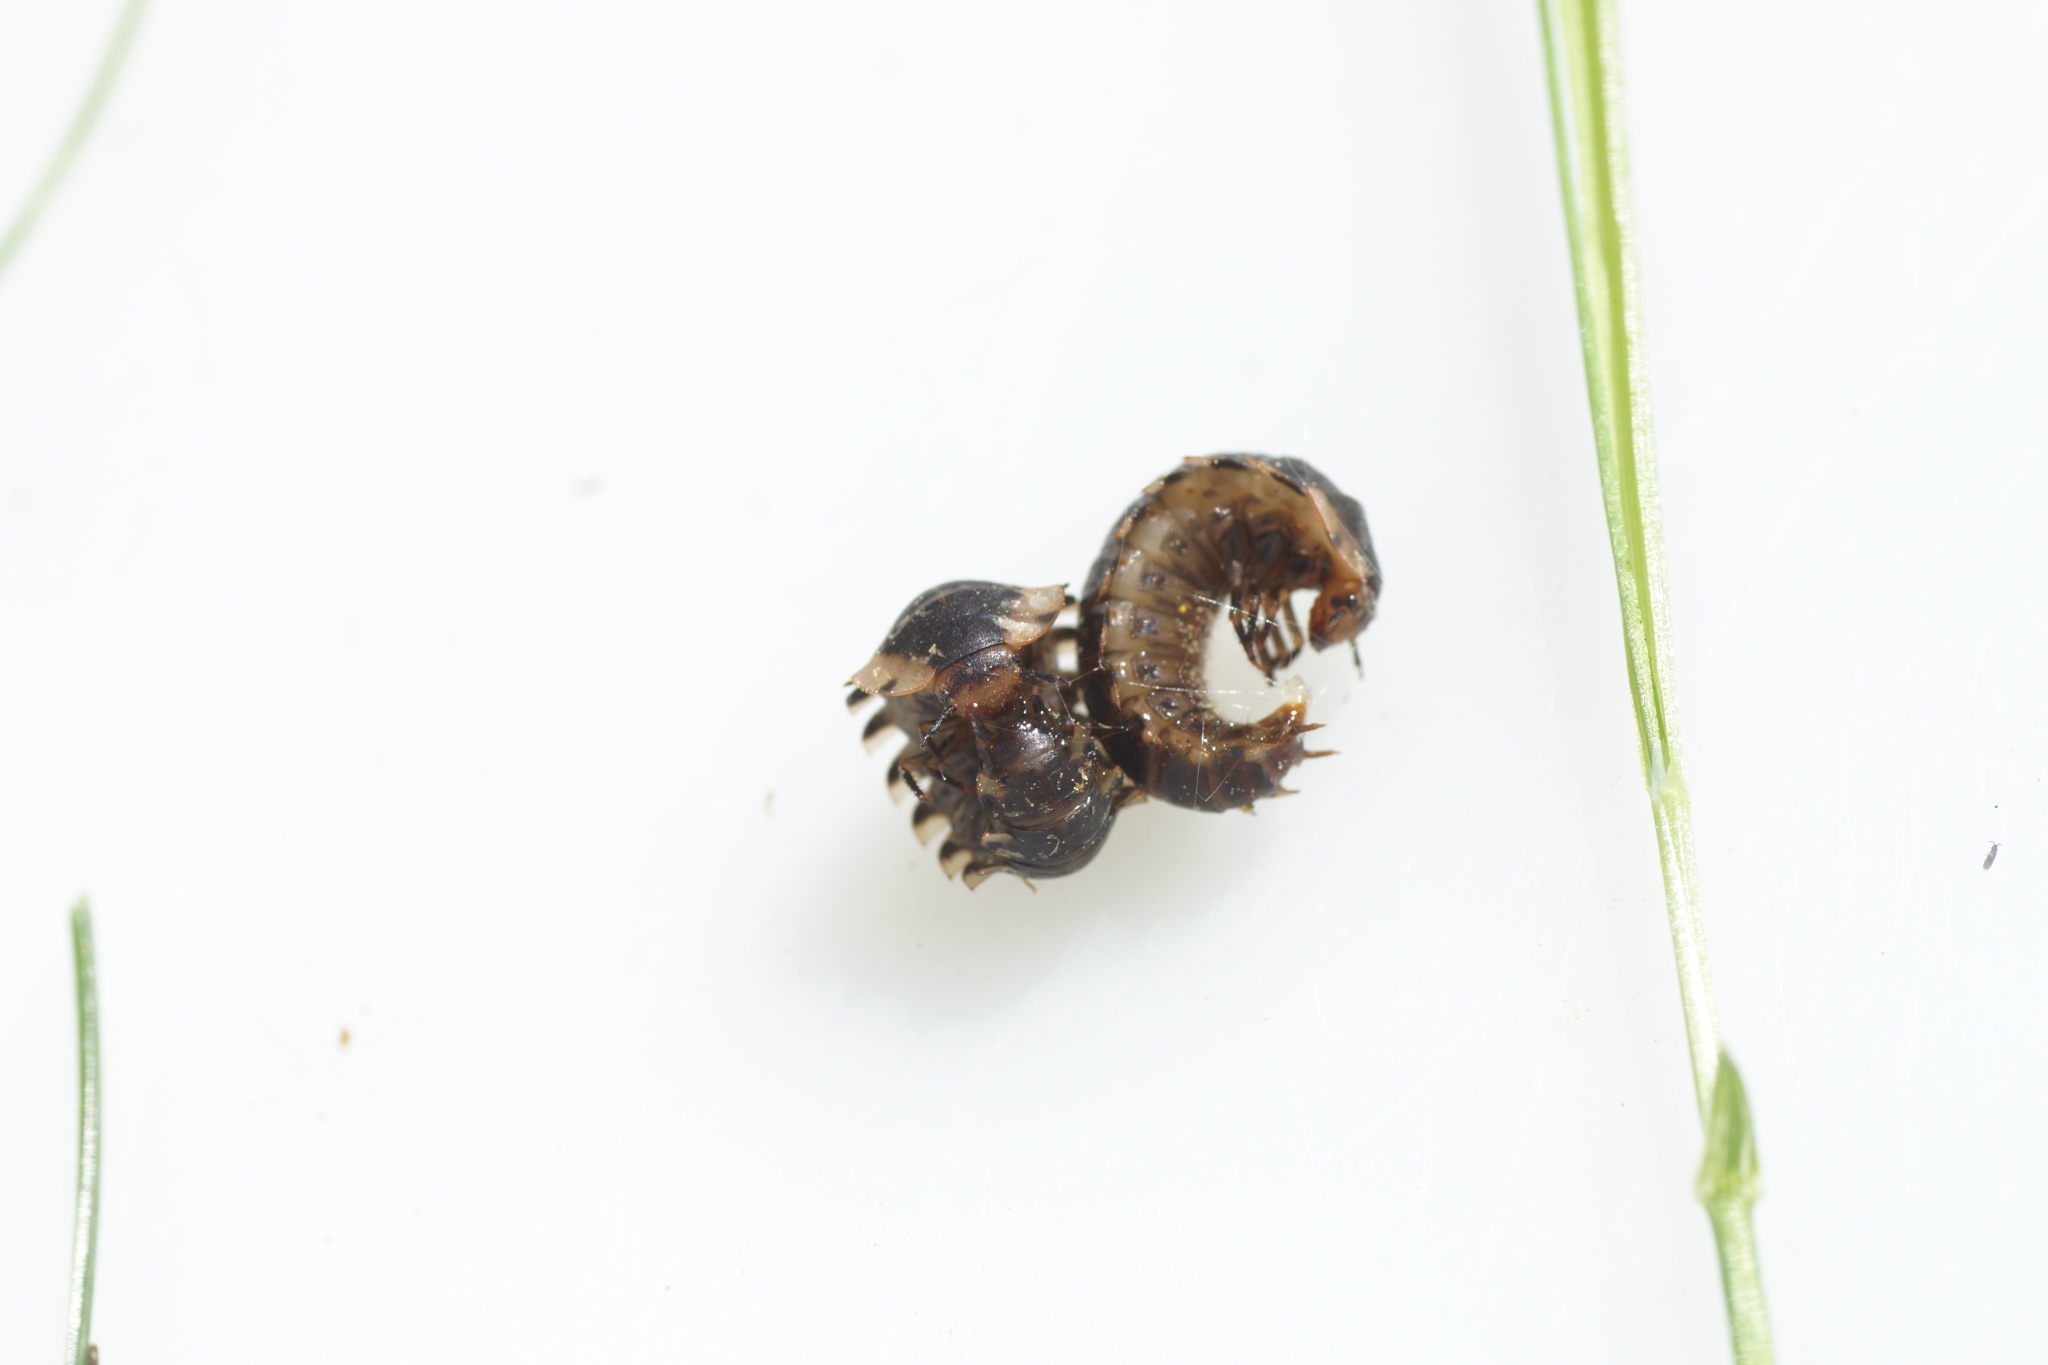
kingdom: Animalia
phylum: Arthropoda
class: Insecta
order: Coleoptera
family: Staphylinidae
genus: Oiceoptoma
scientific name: Oiceoptoma thoracicum
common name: Red-breasted carrion beetle
